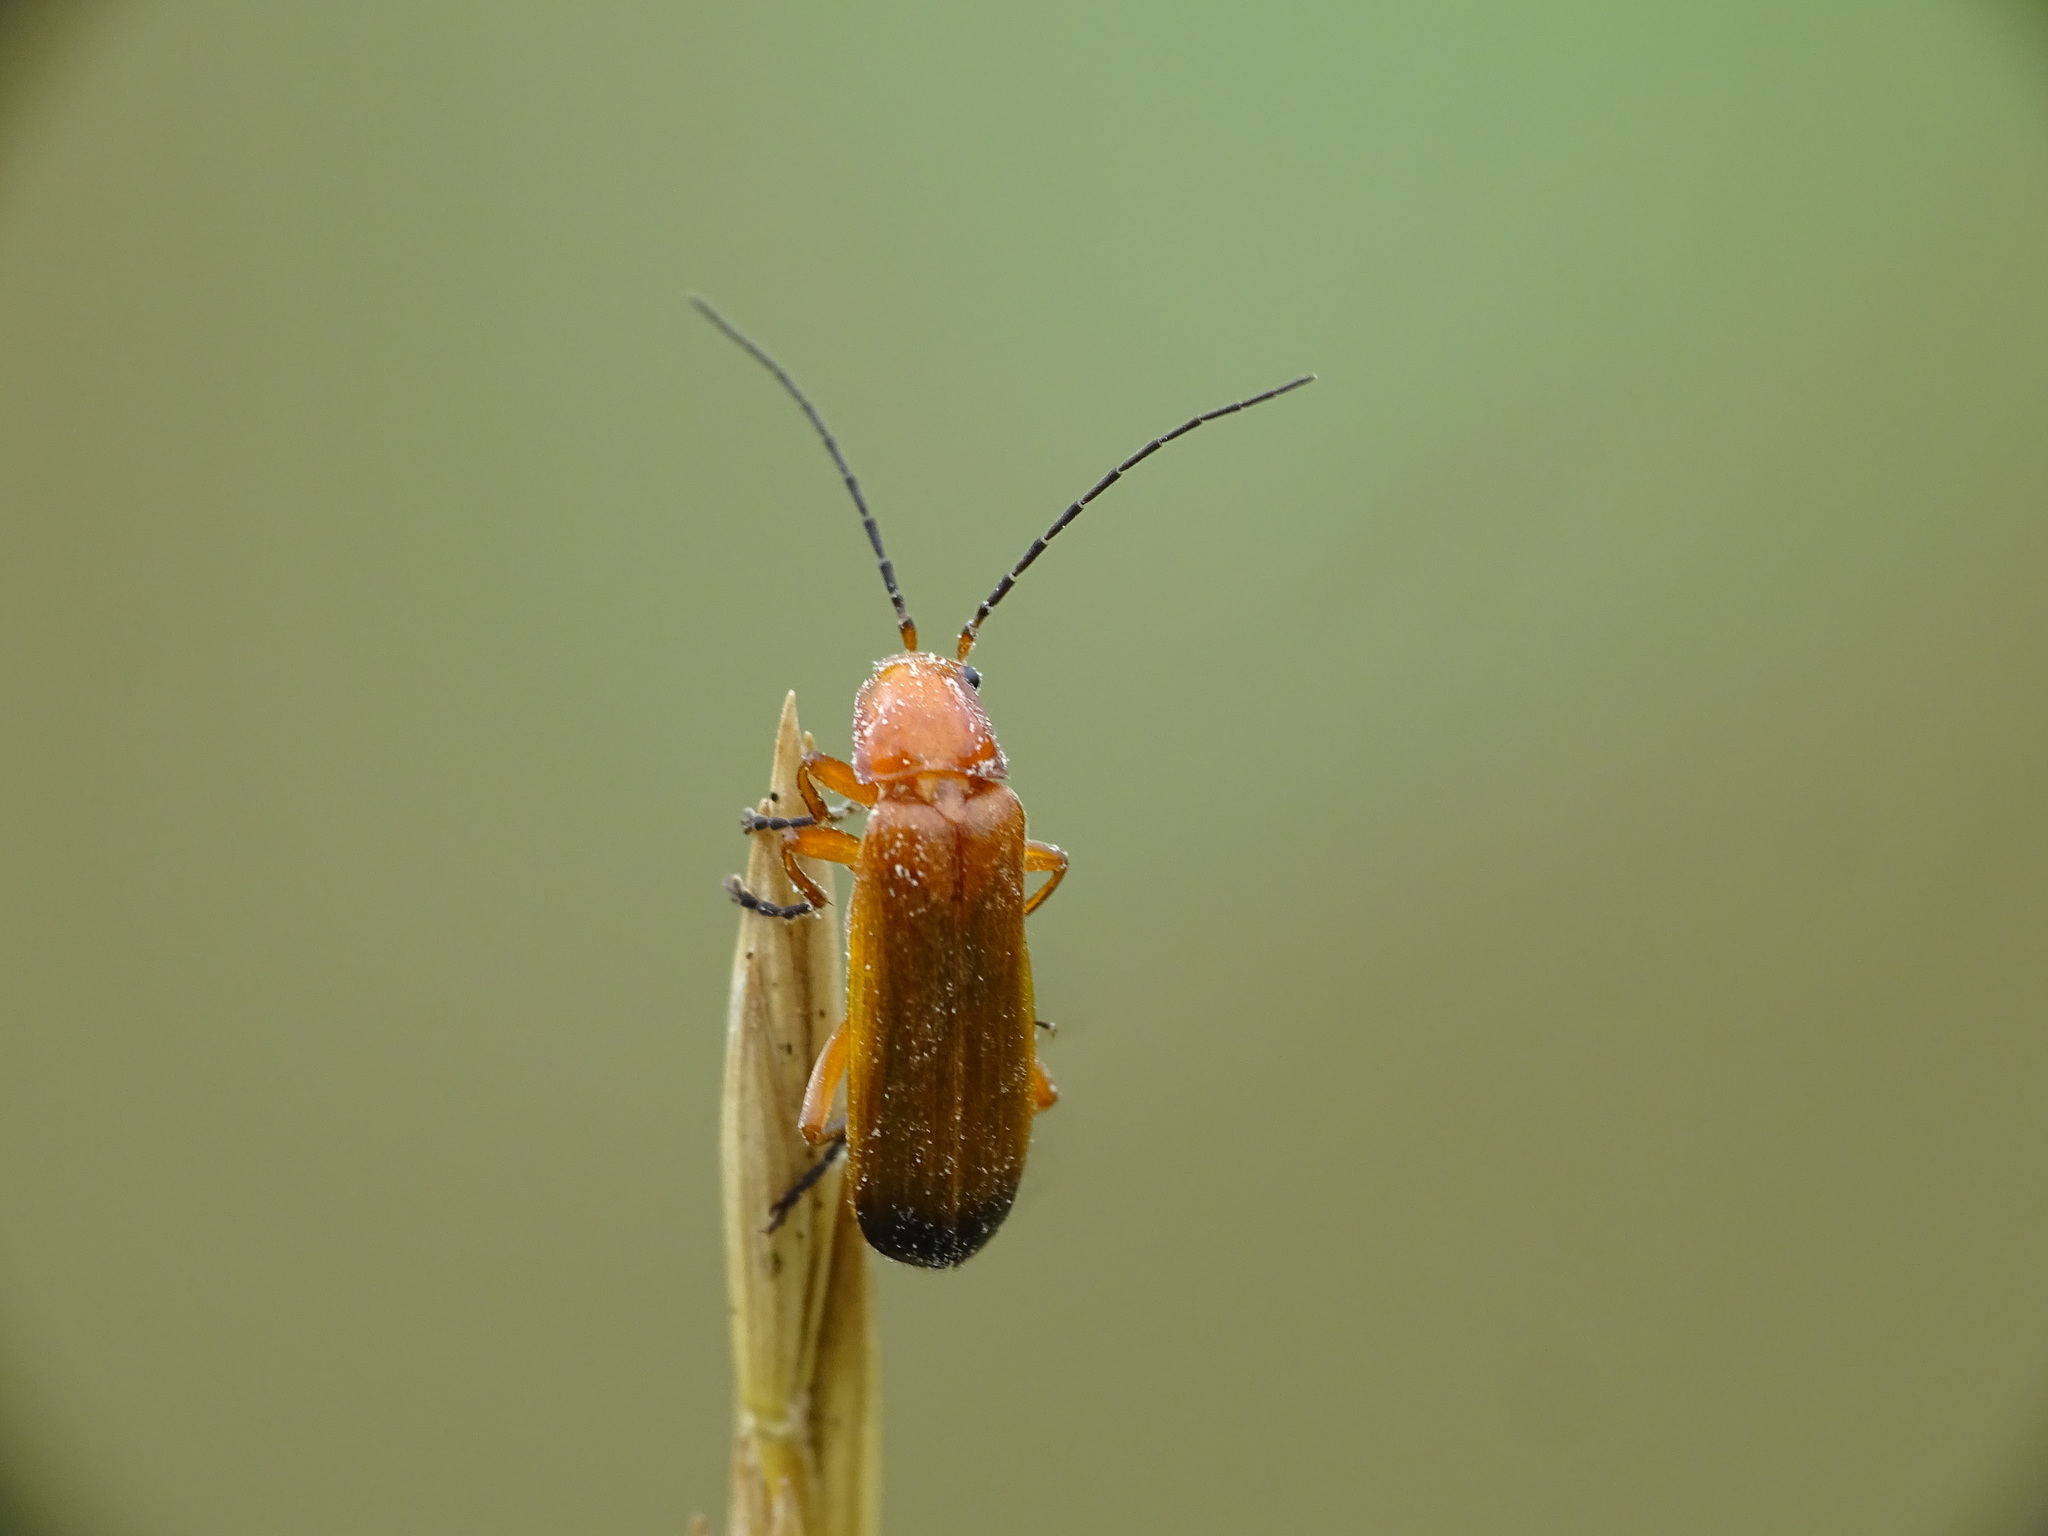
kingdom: Animalia
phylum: Arthropoda
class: Insecta
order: Coleoptera
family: Cantharidae
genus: Rhagonycha
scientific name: Rhagonycha fulva
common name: Common red soldier beetle
